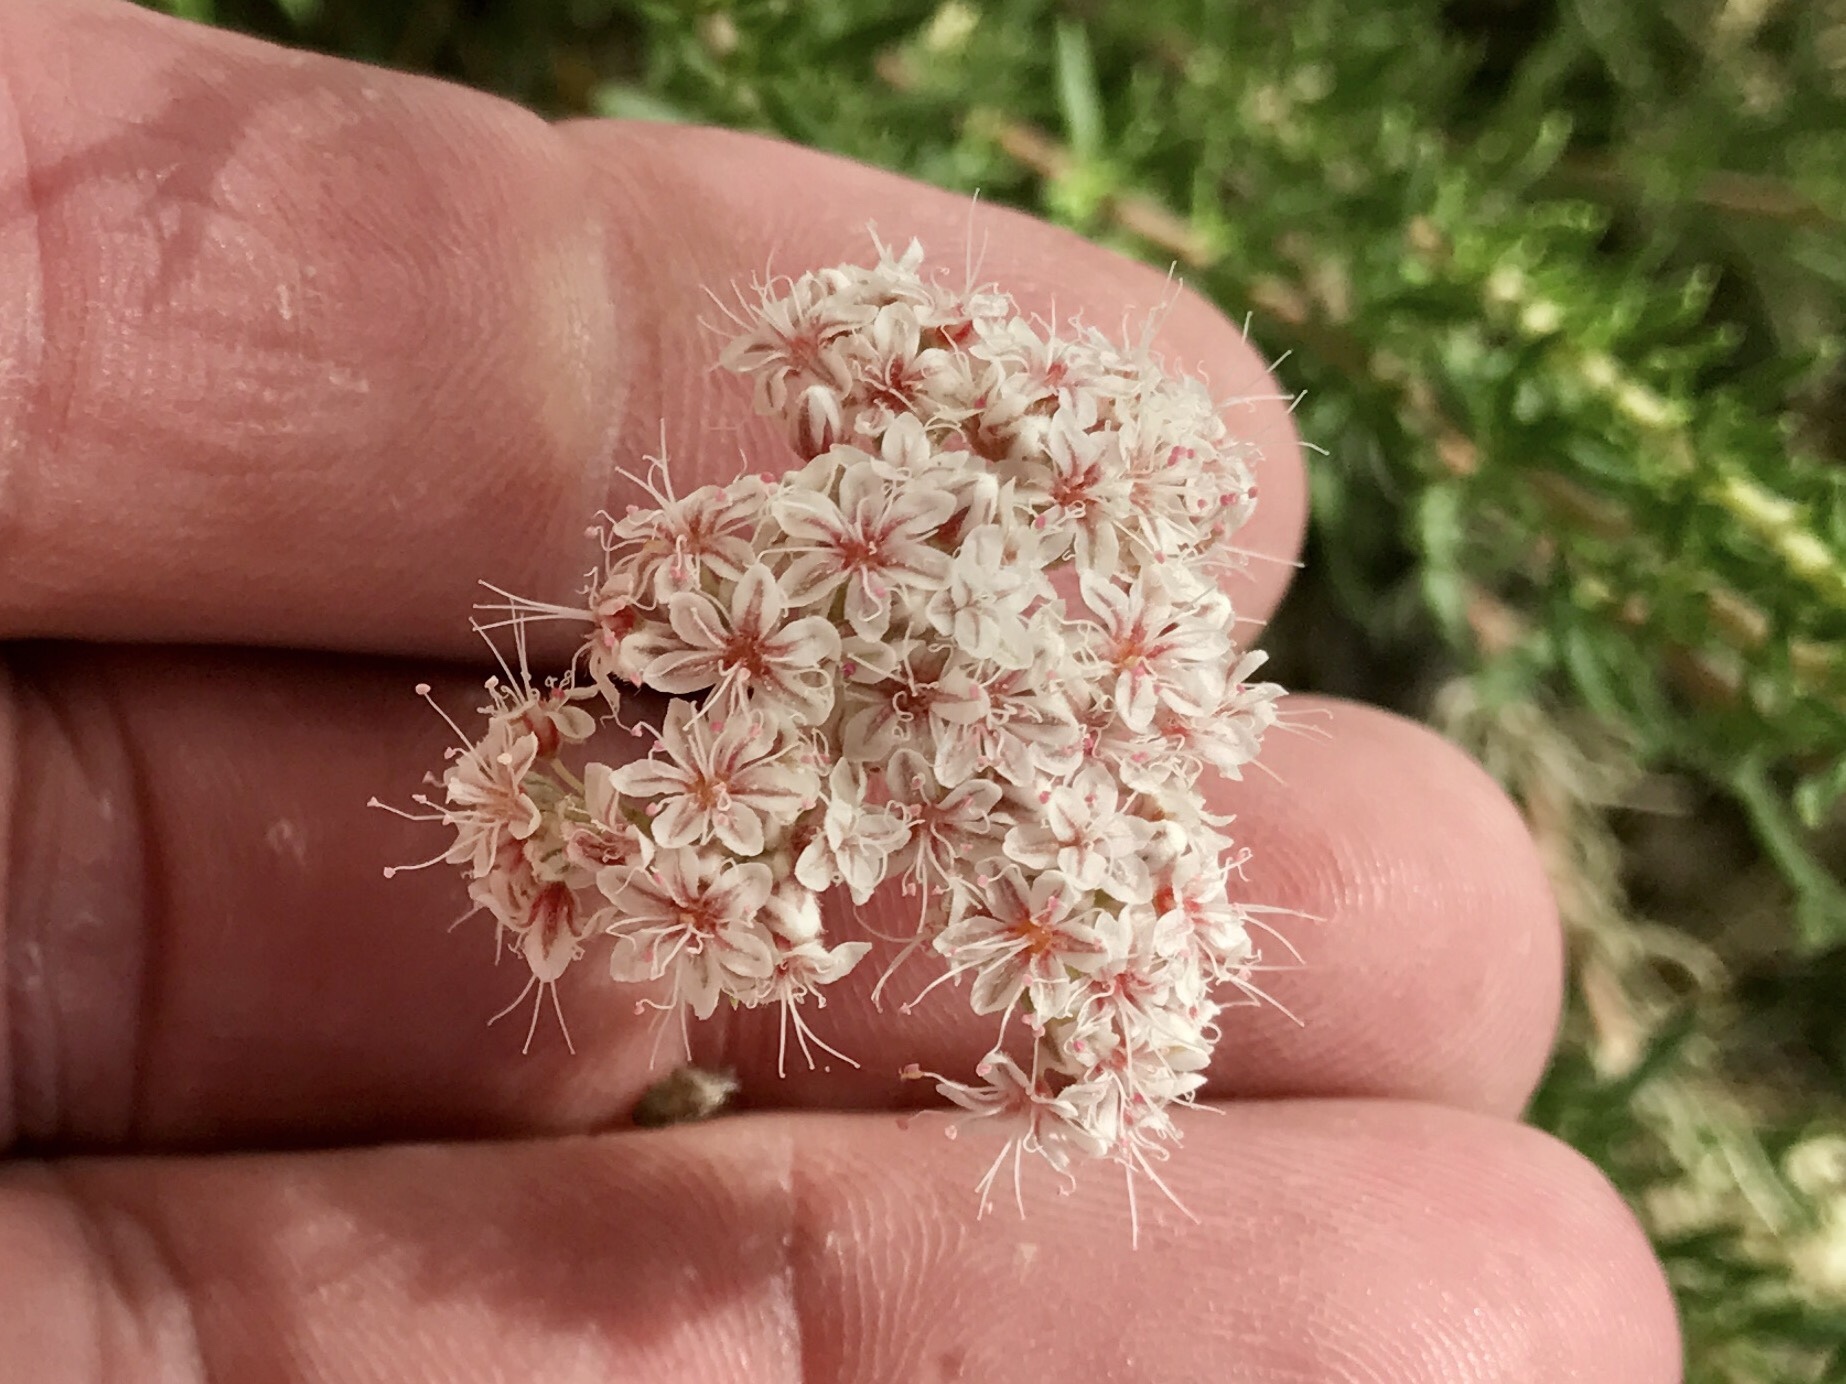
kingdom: Plantae
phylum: Tracheophyta
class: Magnoliopsida
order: Caryophyllales
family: Polygonaceae
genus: Eriogonum
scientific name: Eriogonum fasciculatum
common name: California wild buckwheat
